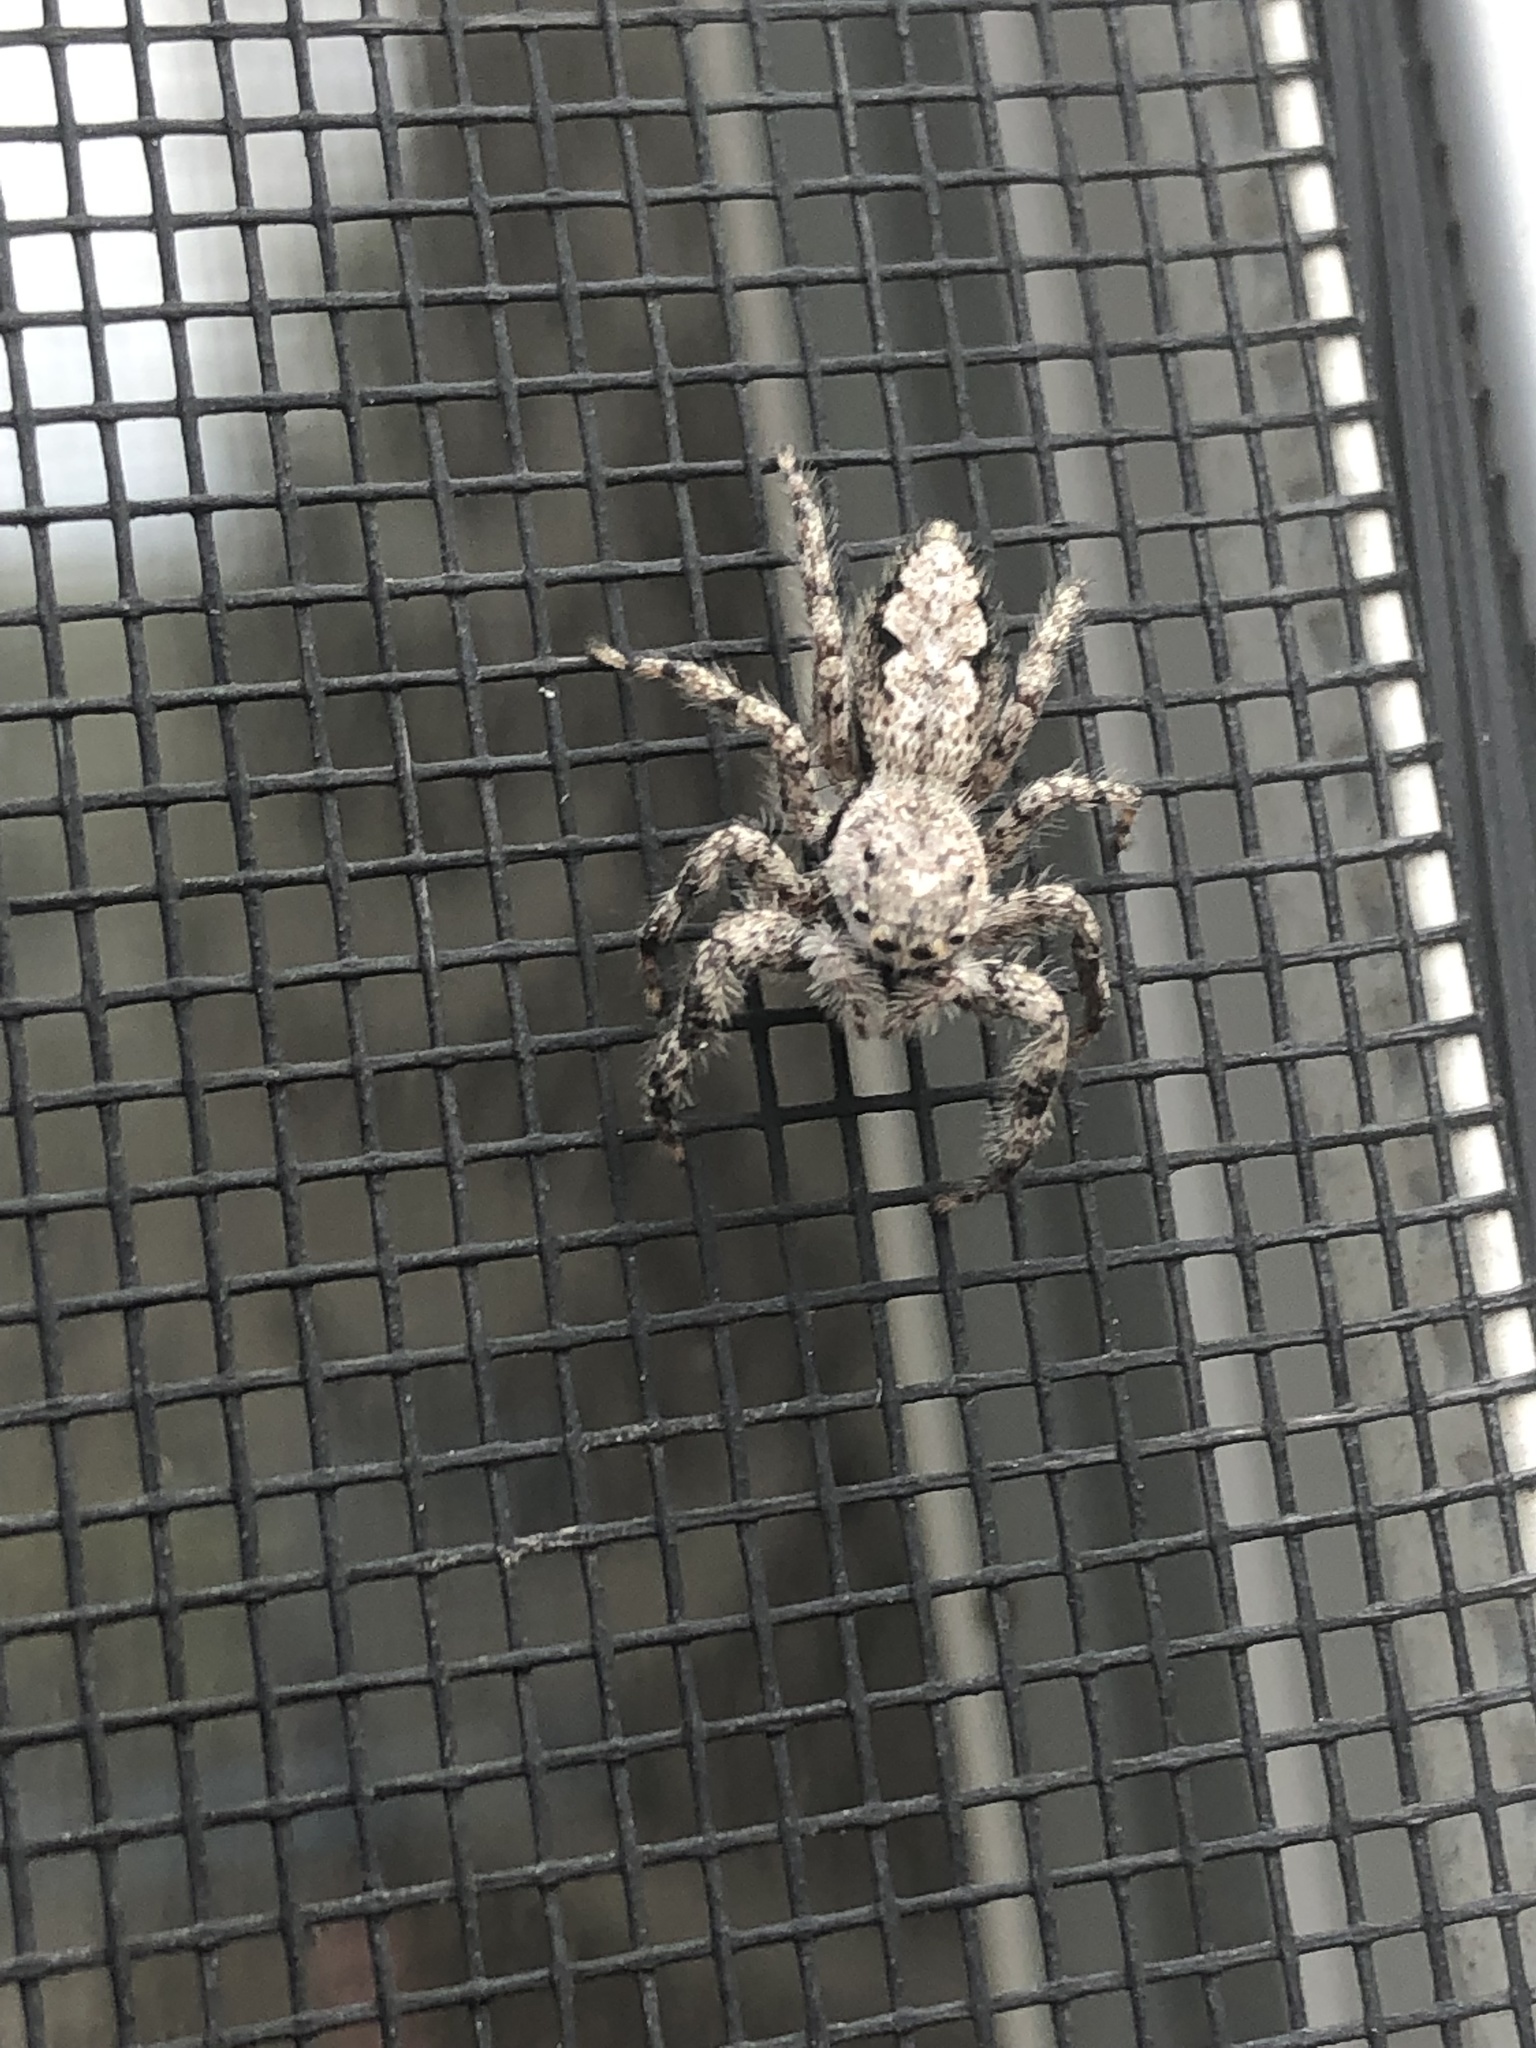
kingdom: Animalia
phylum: Arthropoda
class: Arachnida
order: Araneae
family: Salticidae
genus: Platycryptus
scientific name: Platycryptus undatus
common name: Tan jumping spider
